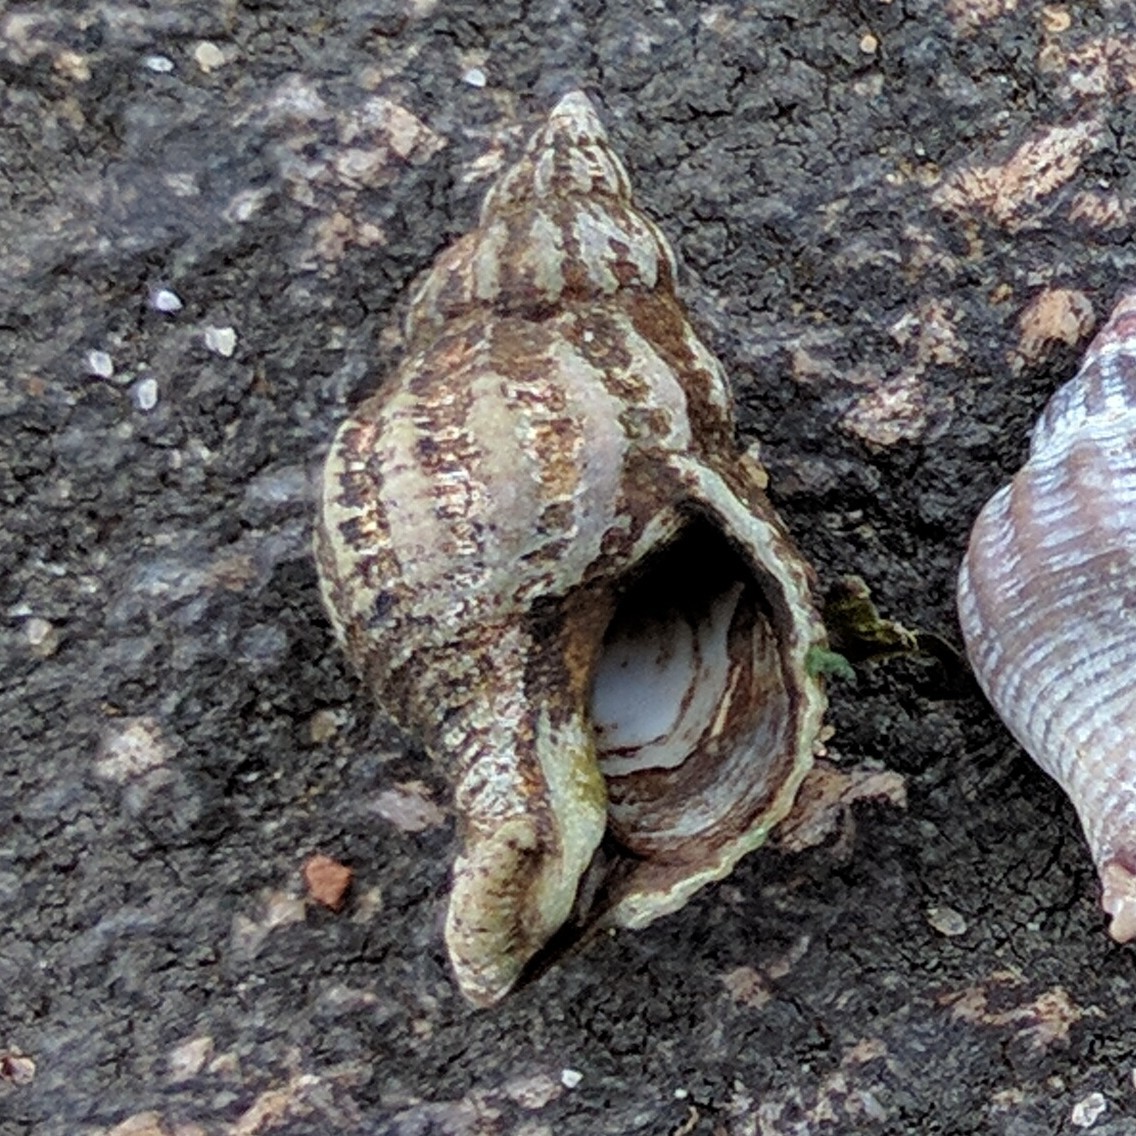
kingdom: Animalia
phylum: Mollusca
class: Gastropoda
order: Neogastropoda
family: Muricidae
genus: Urosalpinx
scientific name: Urosalpinx cinerea
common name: American sting winkle
